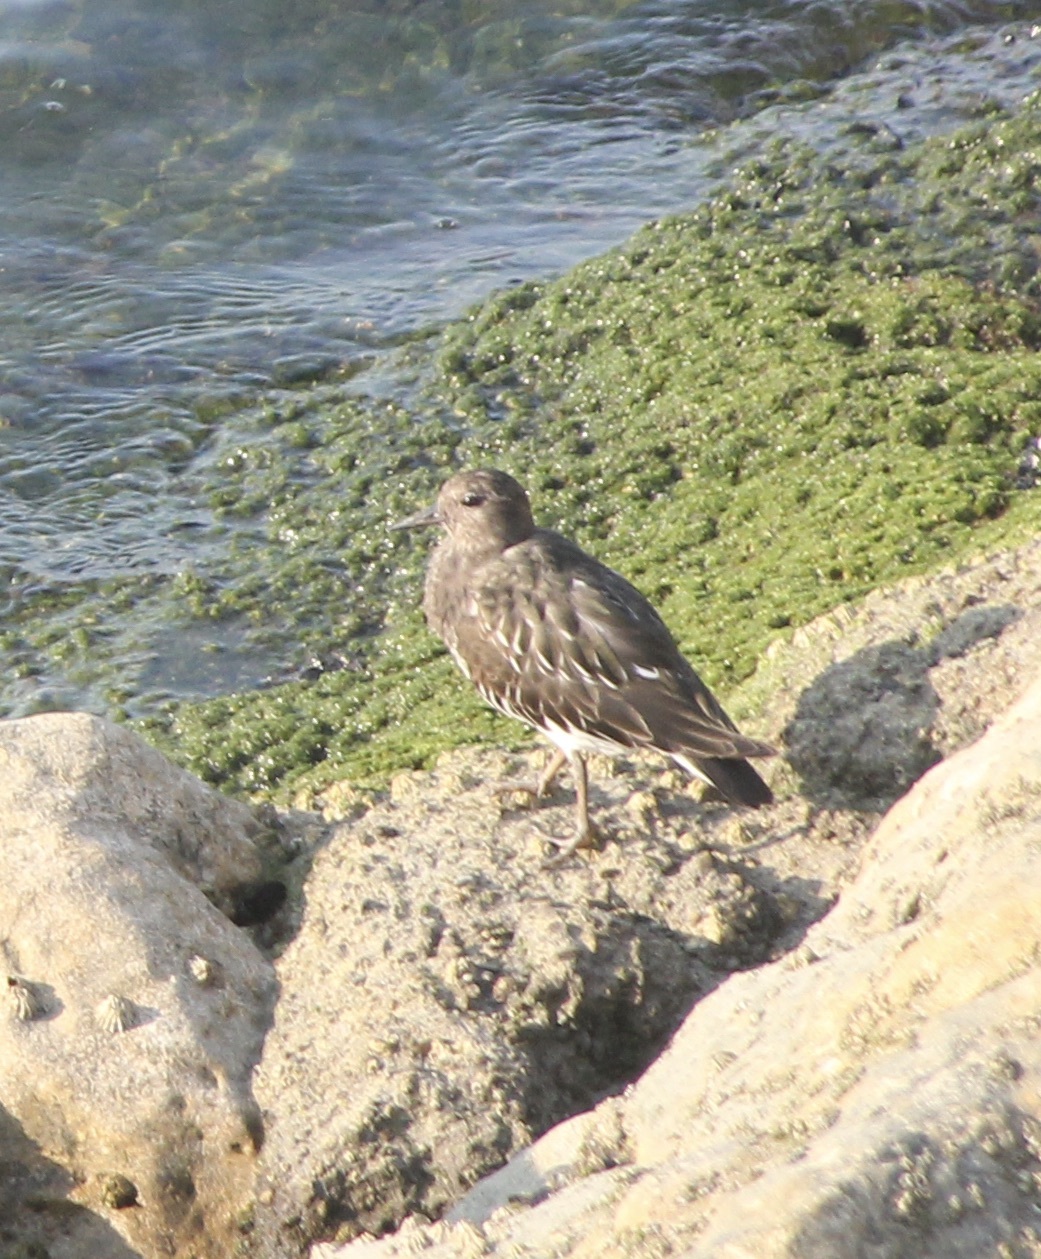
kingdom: Animalia
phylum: Chordata
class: Aves
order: Charadriiformes
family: Scolopacidae
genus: Arenaria
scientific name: Arenaria melanocephala
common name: Black turnstone
